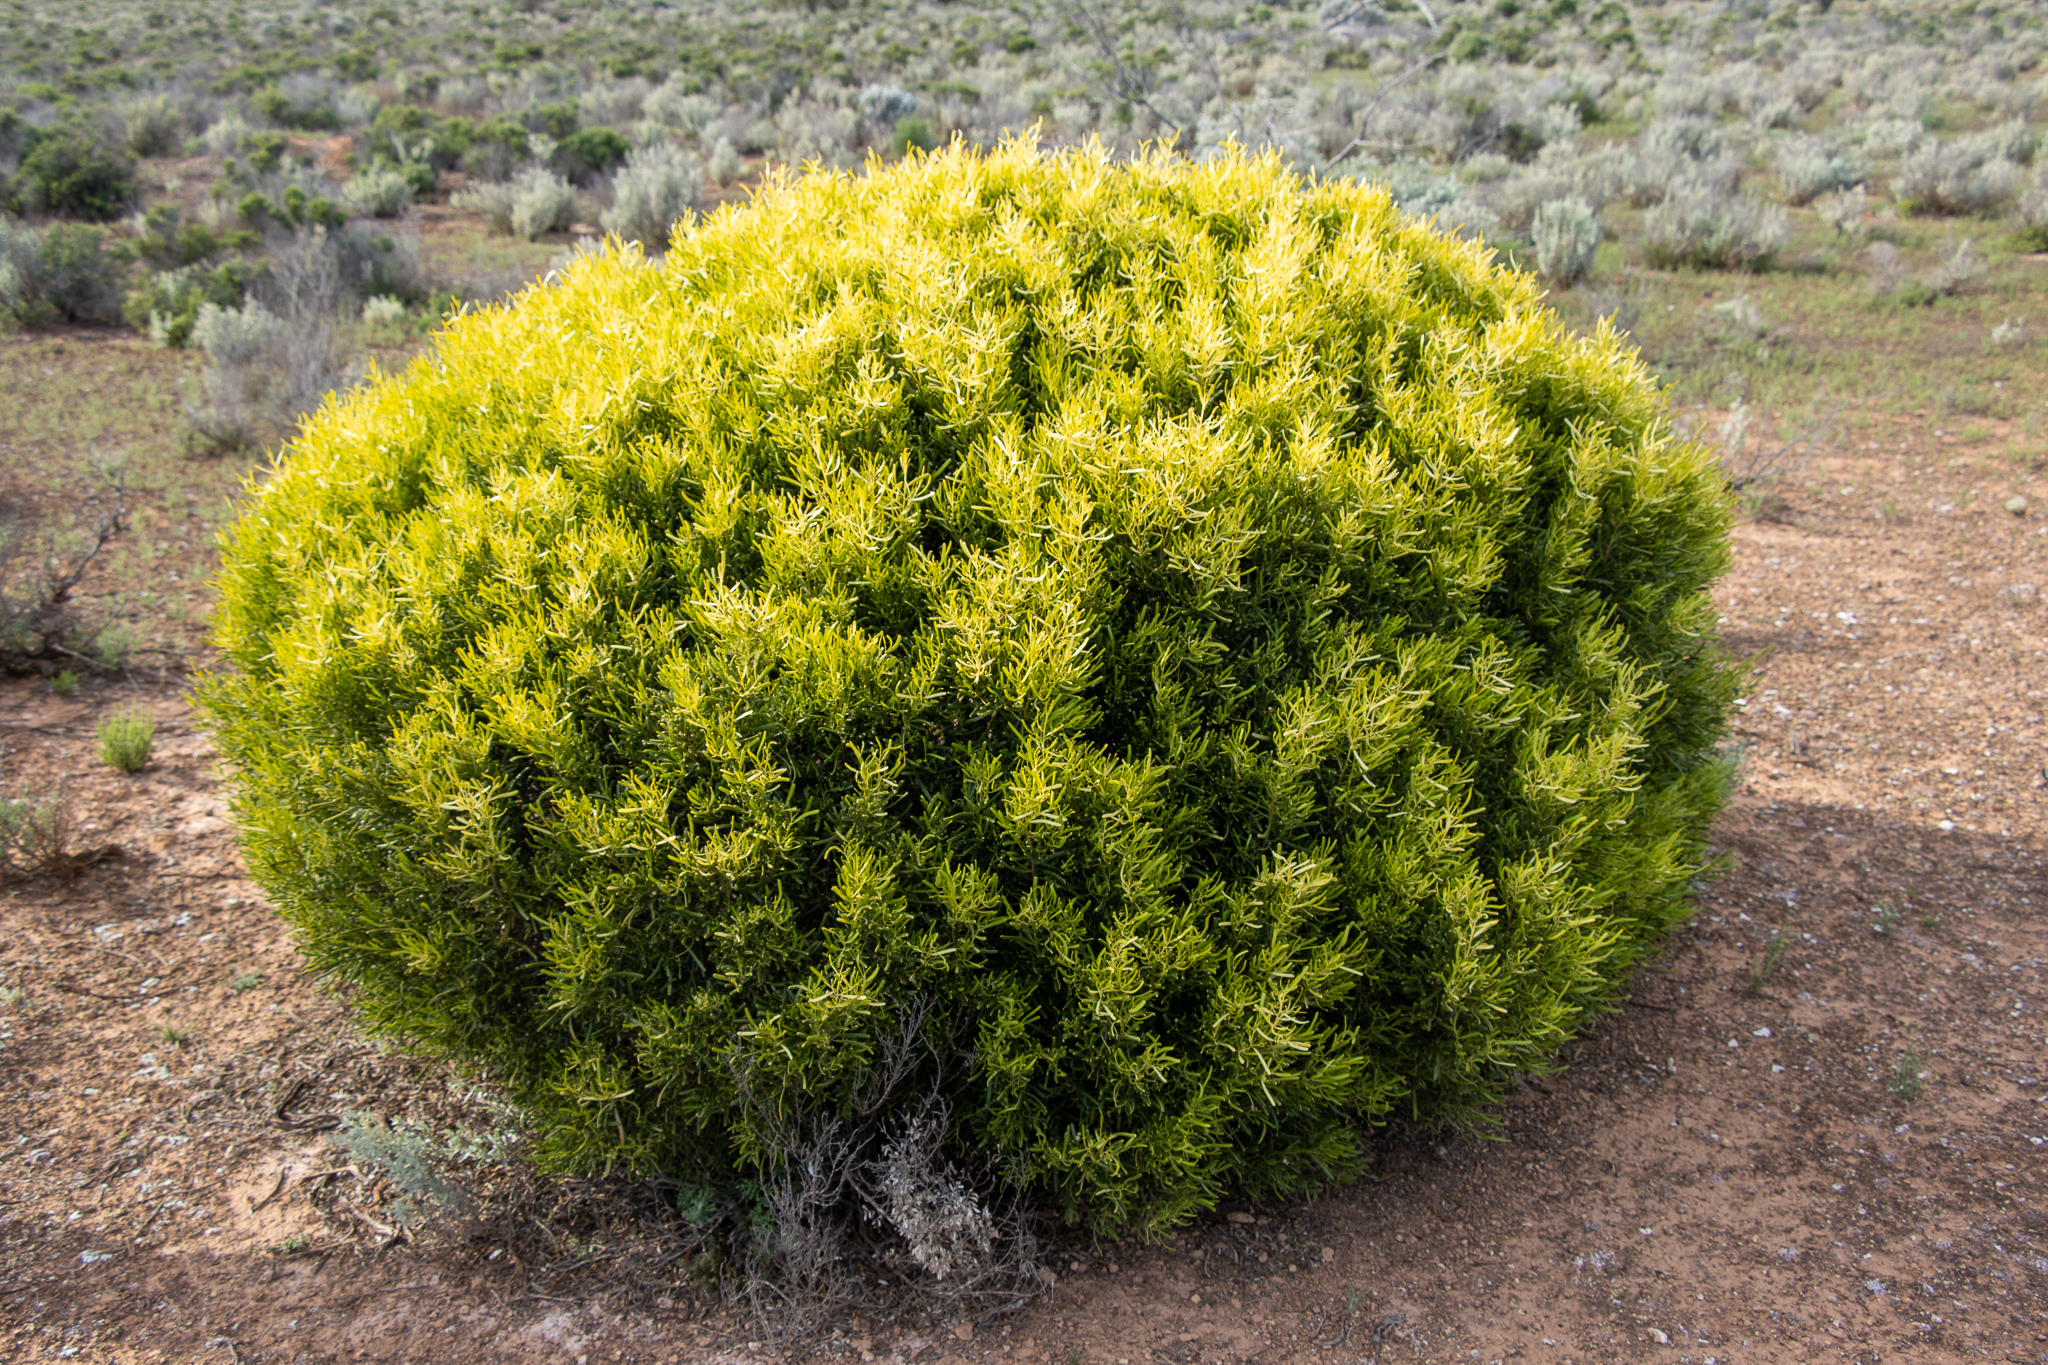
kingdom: Plantae
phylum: Tracheophyta
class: Magnoliopsida
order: Sapindales
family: Rutaceae
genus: Geijera
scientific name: Geijera linearifolia
